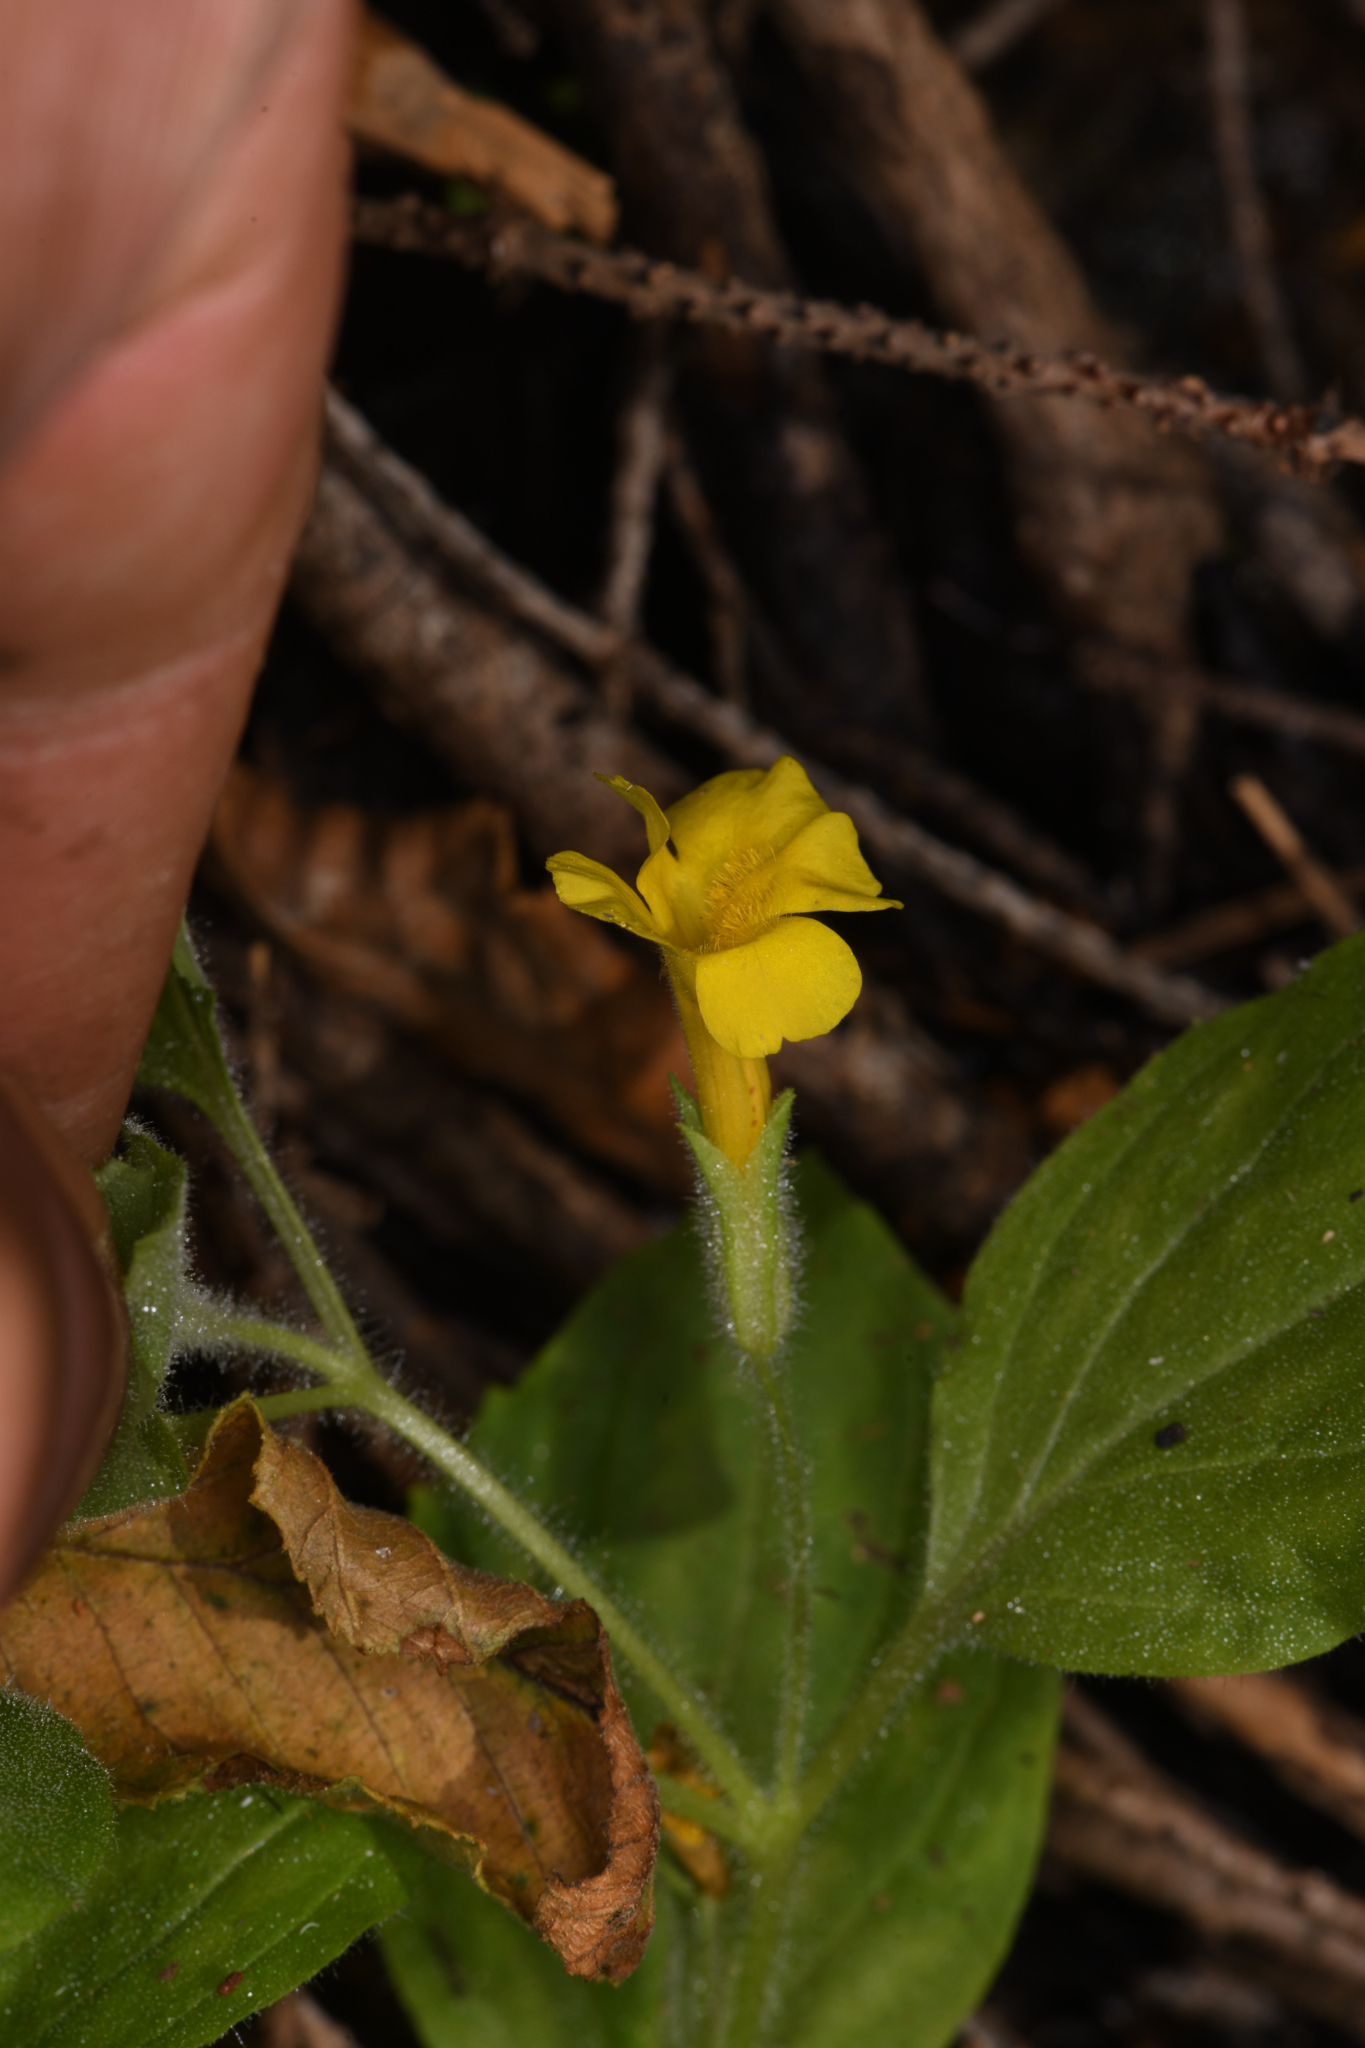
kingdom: Plantae
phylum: Tracheophyta
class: Magnoliopsida
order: Lamiales
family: Phrymaceae
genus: Erythranthe
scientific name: Erythranthe moschata
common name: Muskflower
